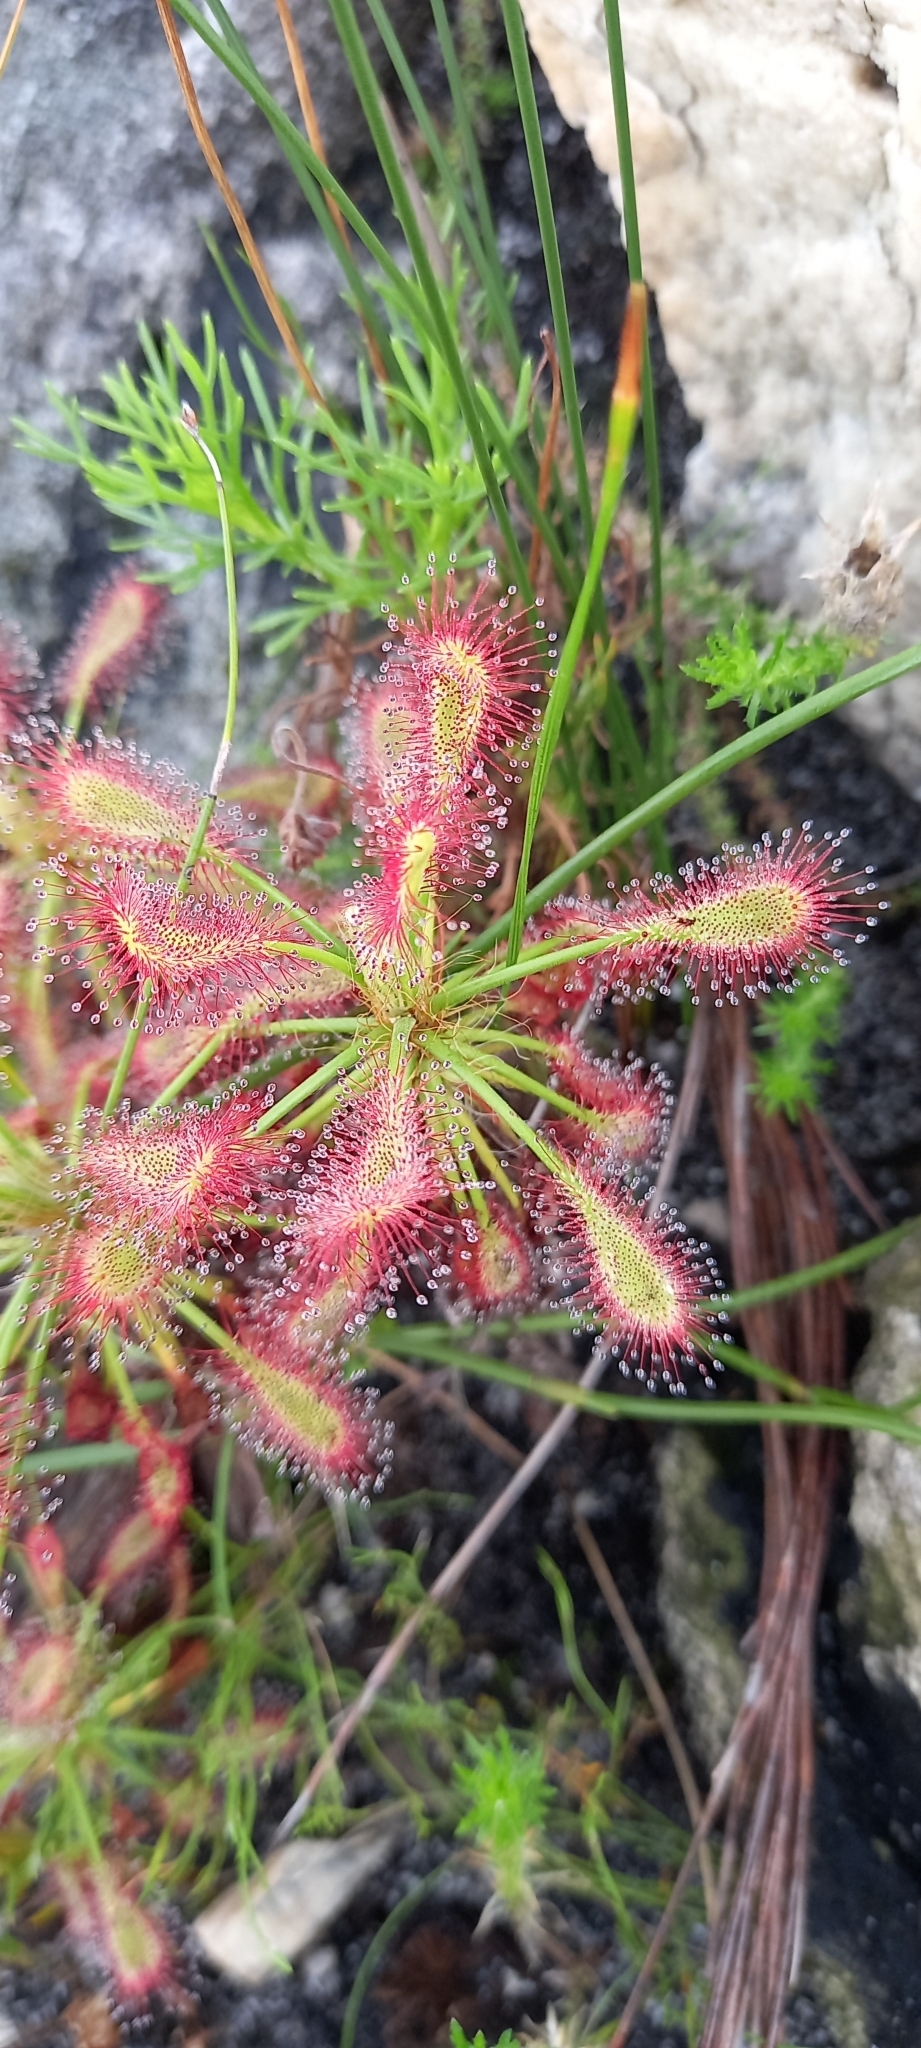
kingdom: Plantae
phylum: Tracheophyta
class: Magnoliopsida
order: Caryophyllales
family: Droseraceae
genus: Drosera
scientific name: Drosera glabripes
